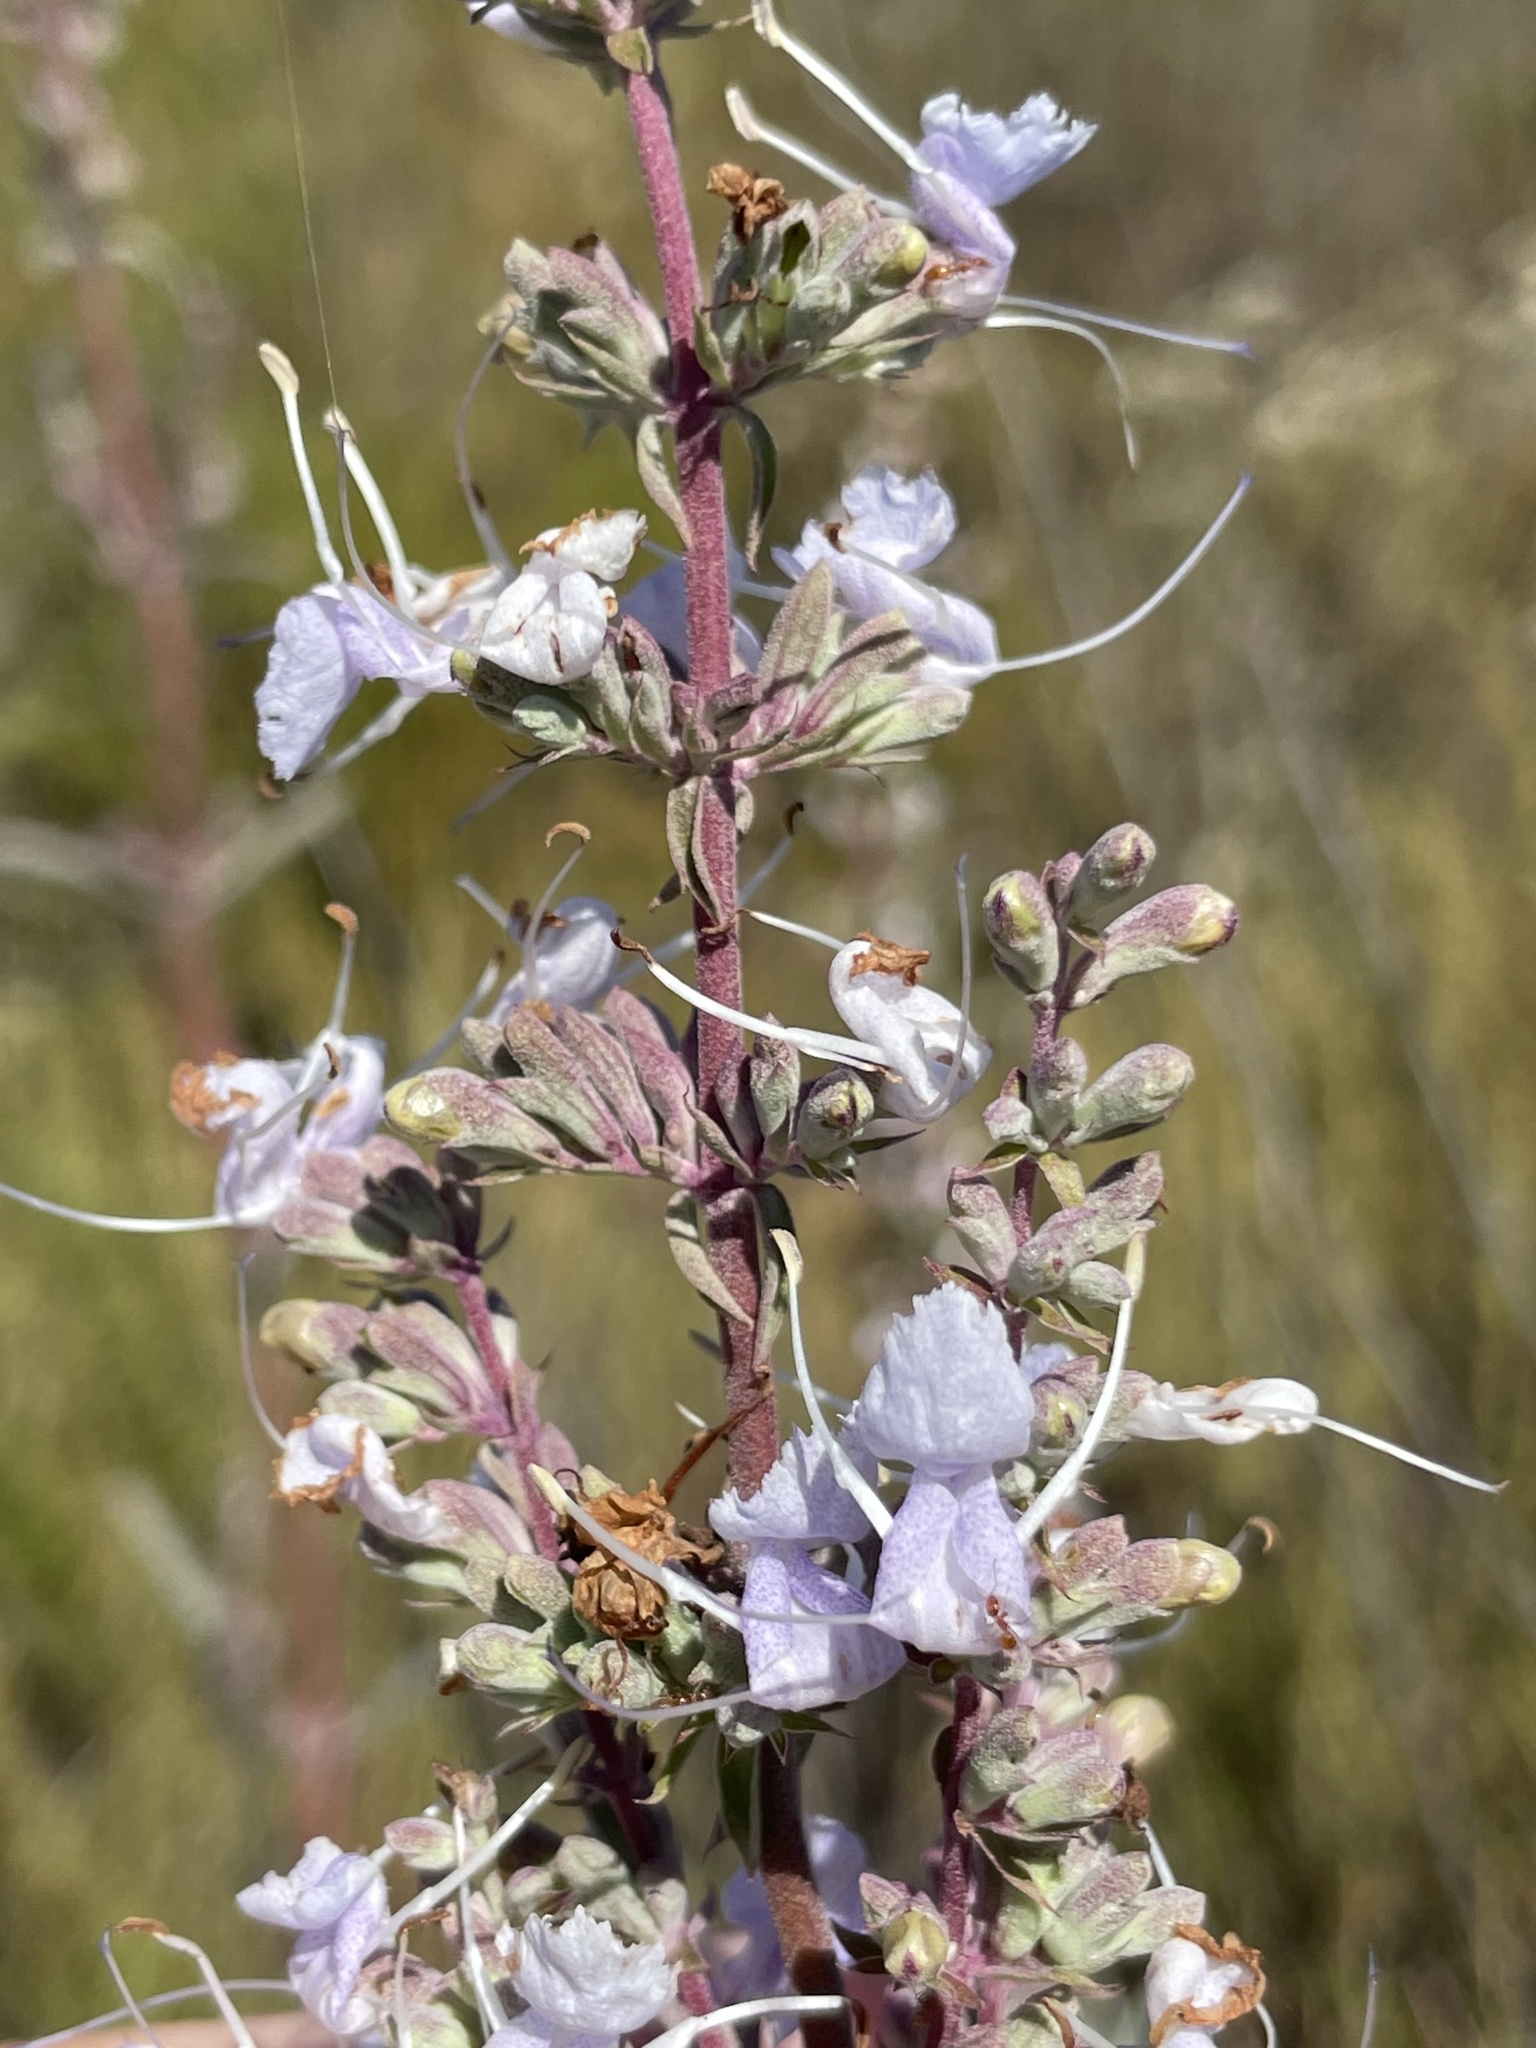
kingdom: Plantae
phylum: Tracheophyta
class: Magnoliopsida
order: Lamiales
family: Lamiaceae
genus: Salvia
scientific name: Salvia apiana
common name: White sage
